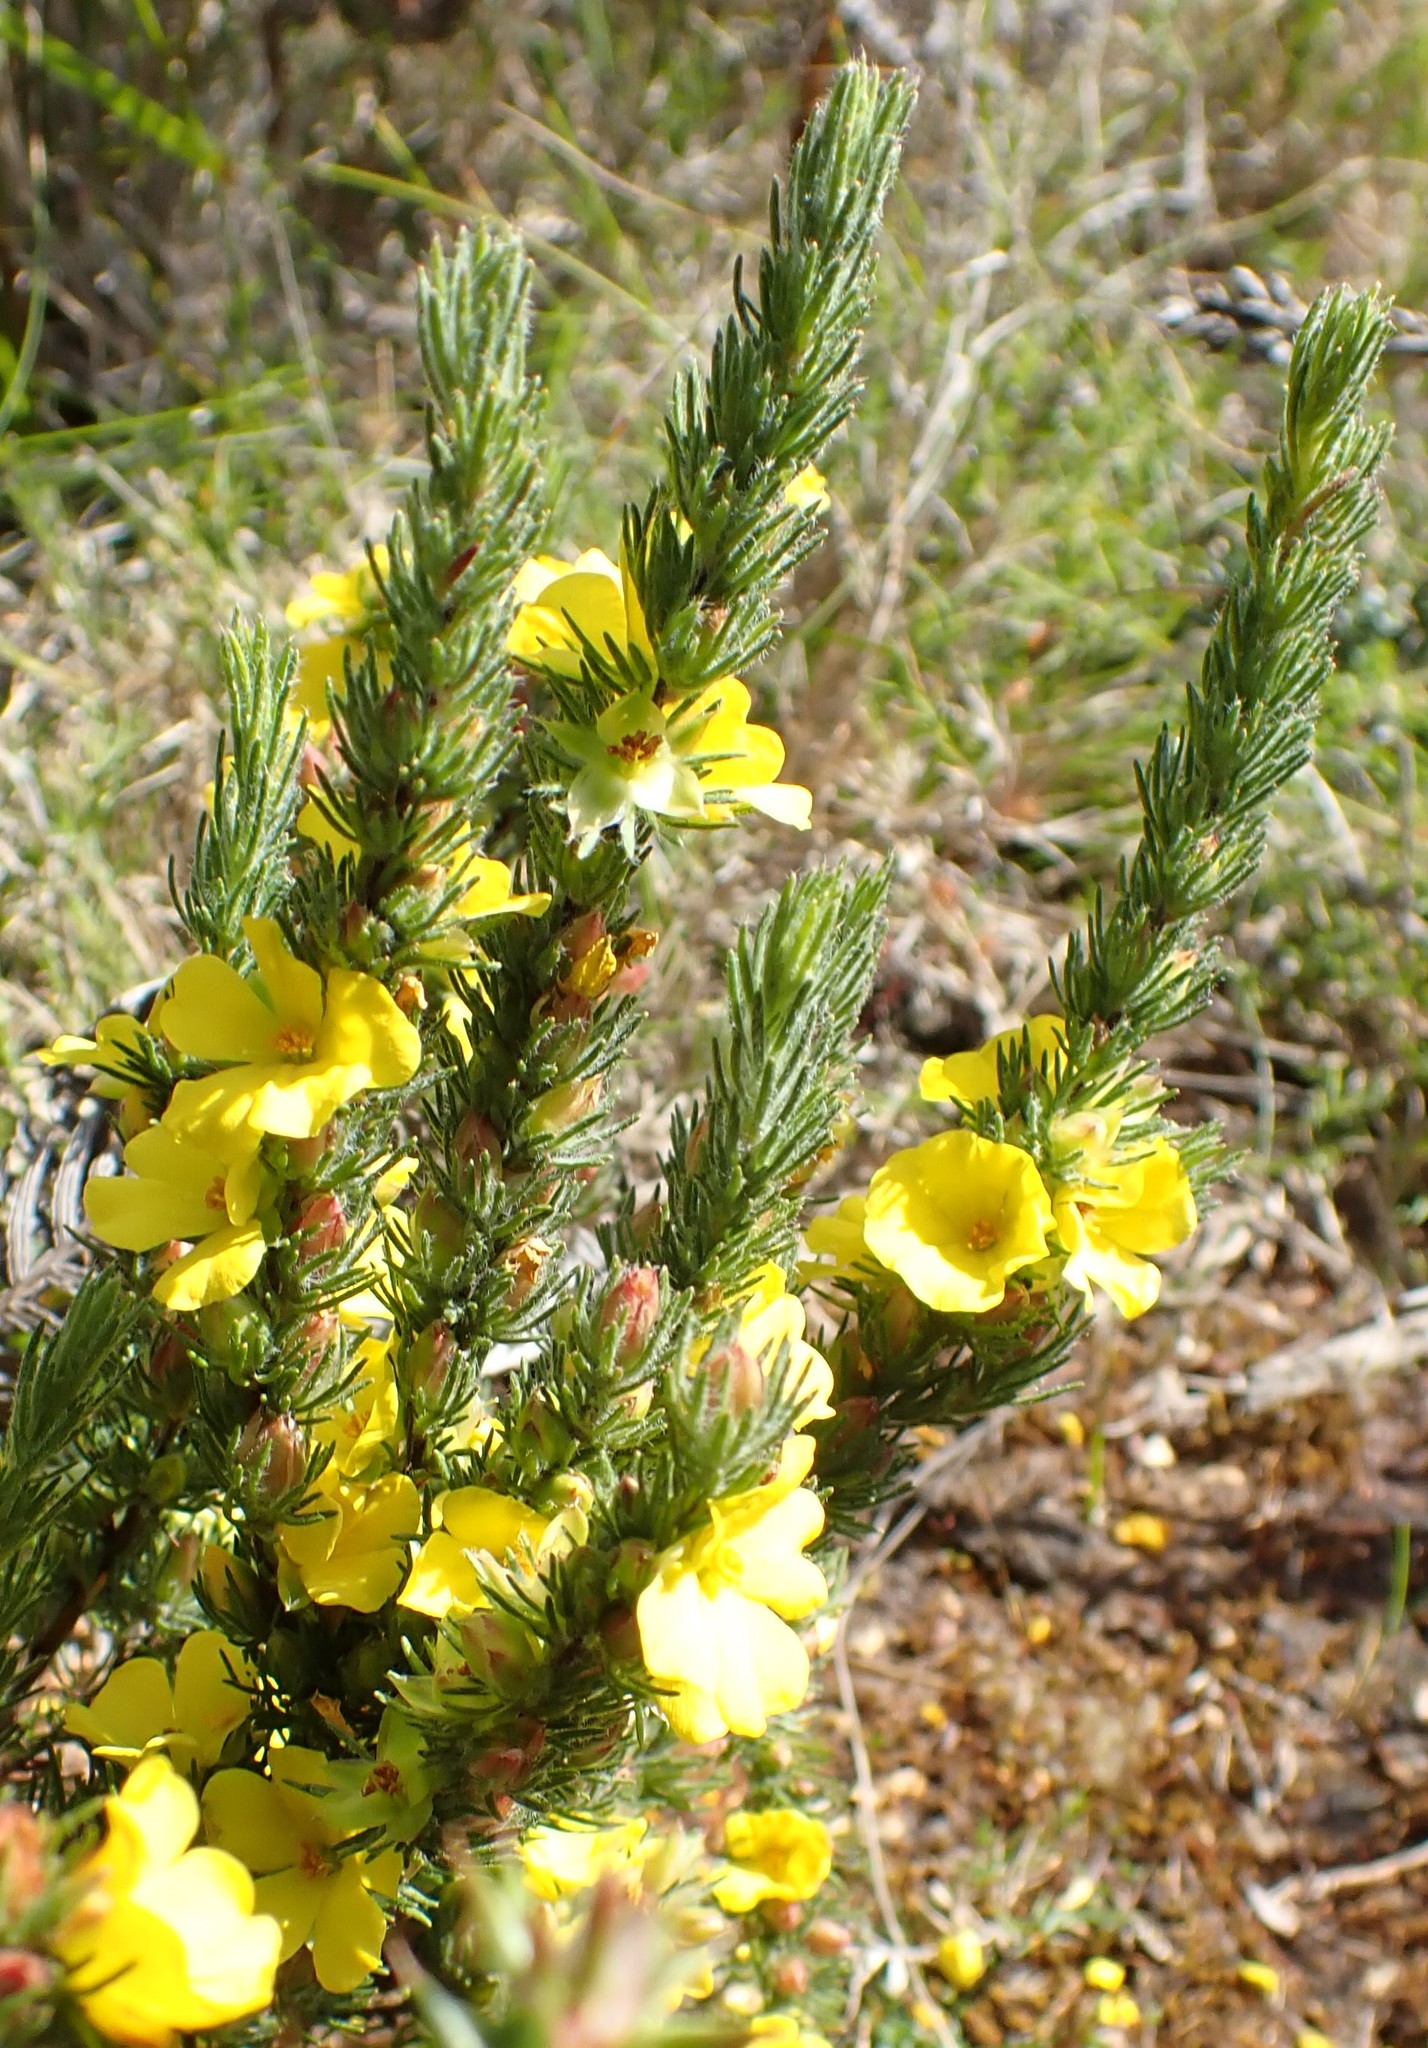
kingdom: Plantae
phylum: Tracheophyta
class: Magnoliopsida
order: Dilleniales
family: Dilleniaceae
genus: Hibbertia
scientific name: Hibbertia prostrata
